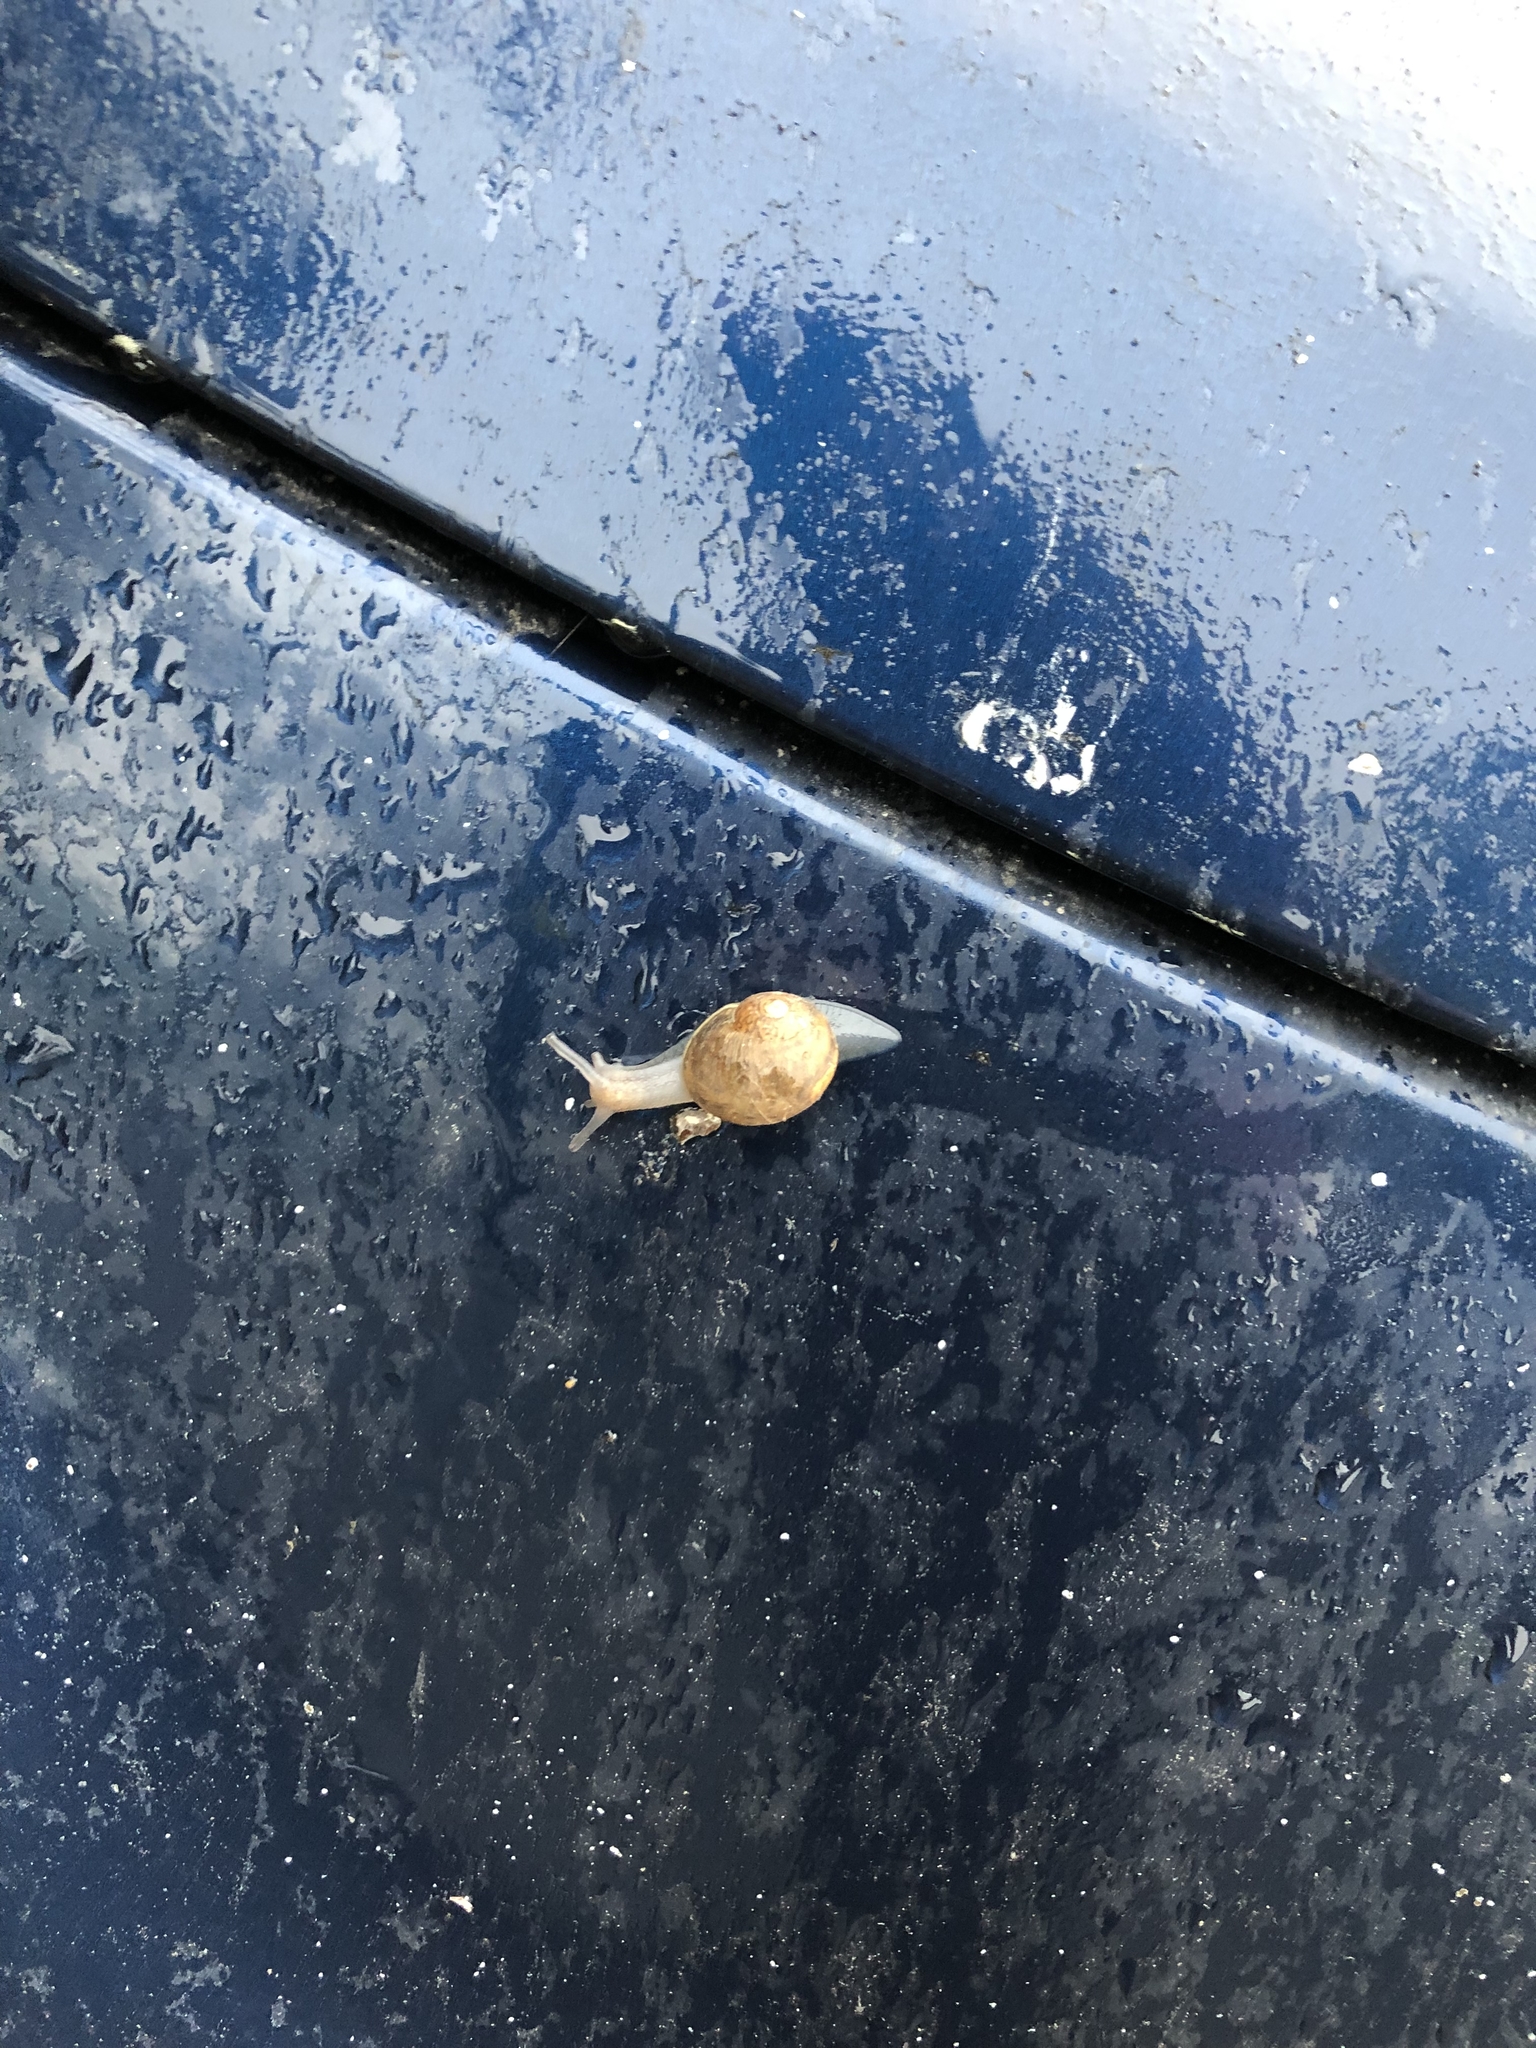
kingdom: Animalia
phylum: Mollusca
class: Gastropoda
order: Stylommatophora
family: Helicidae
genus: Cornu
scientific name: Cornu aspersum
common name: Brown garden snail
